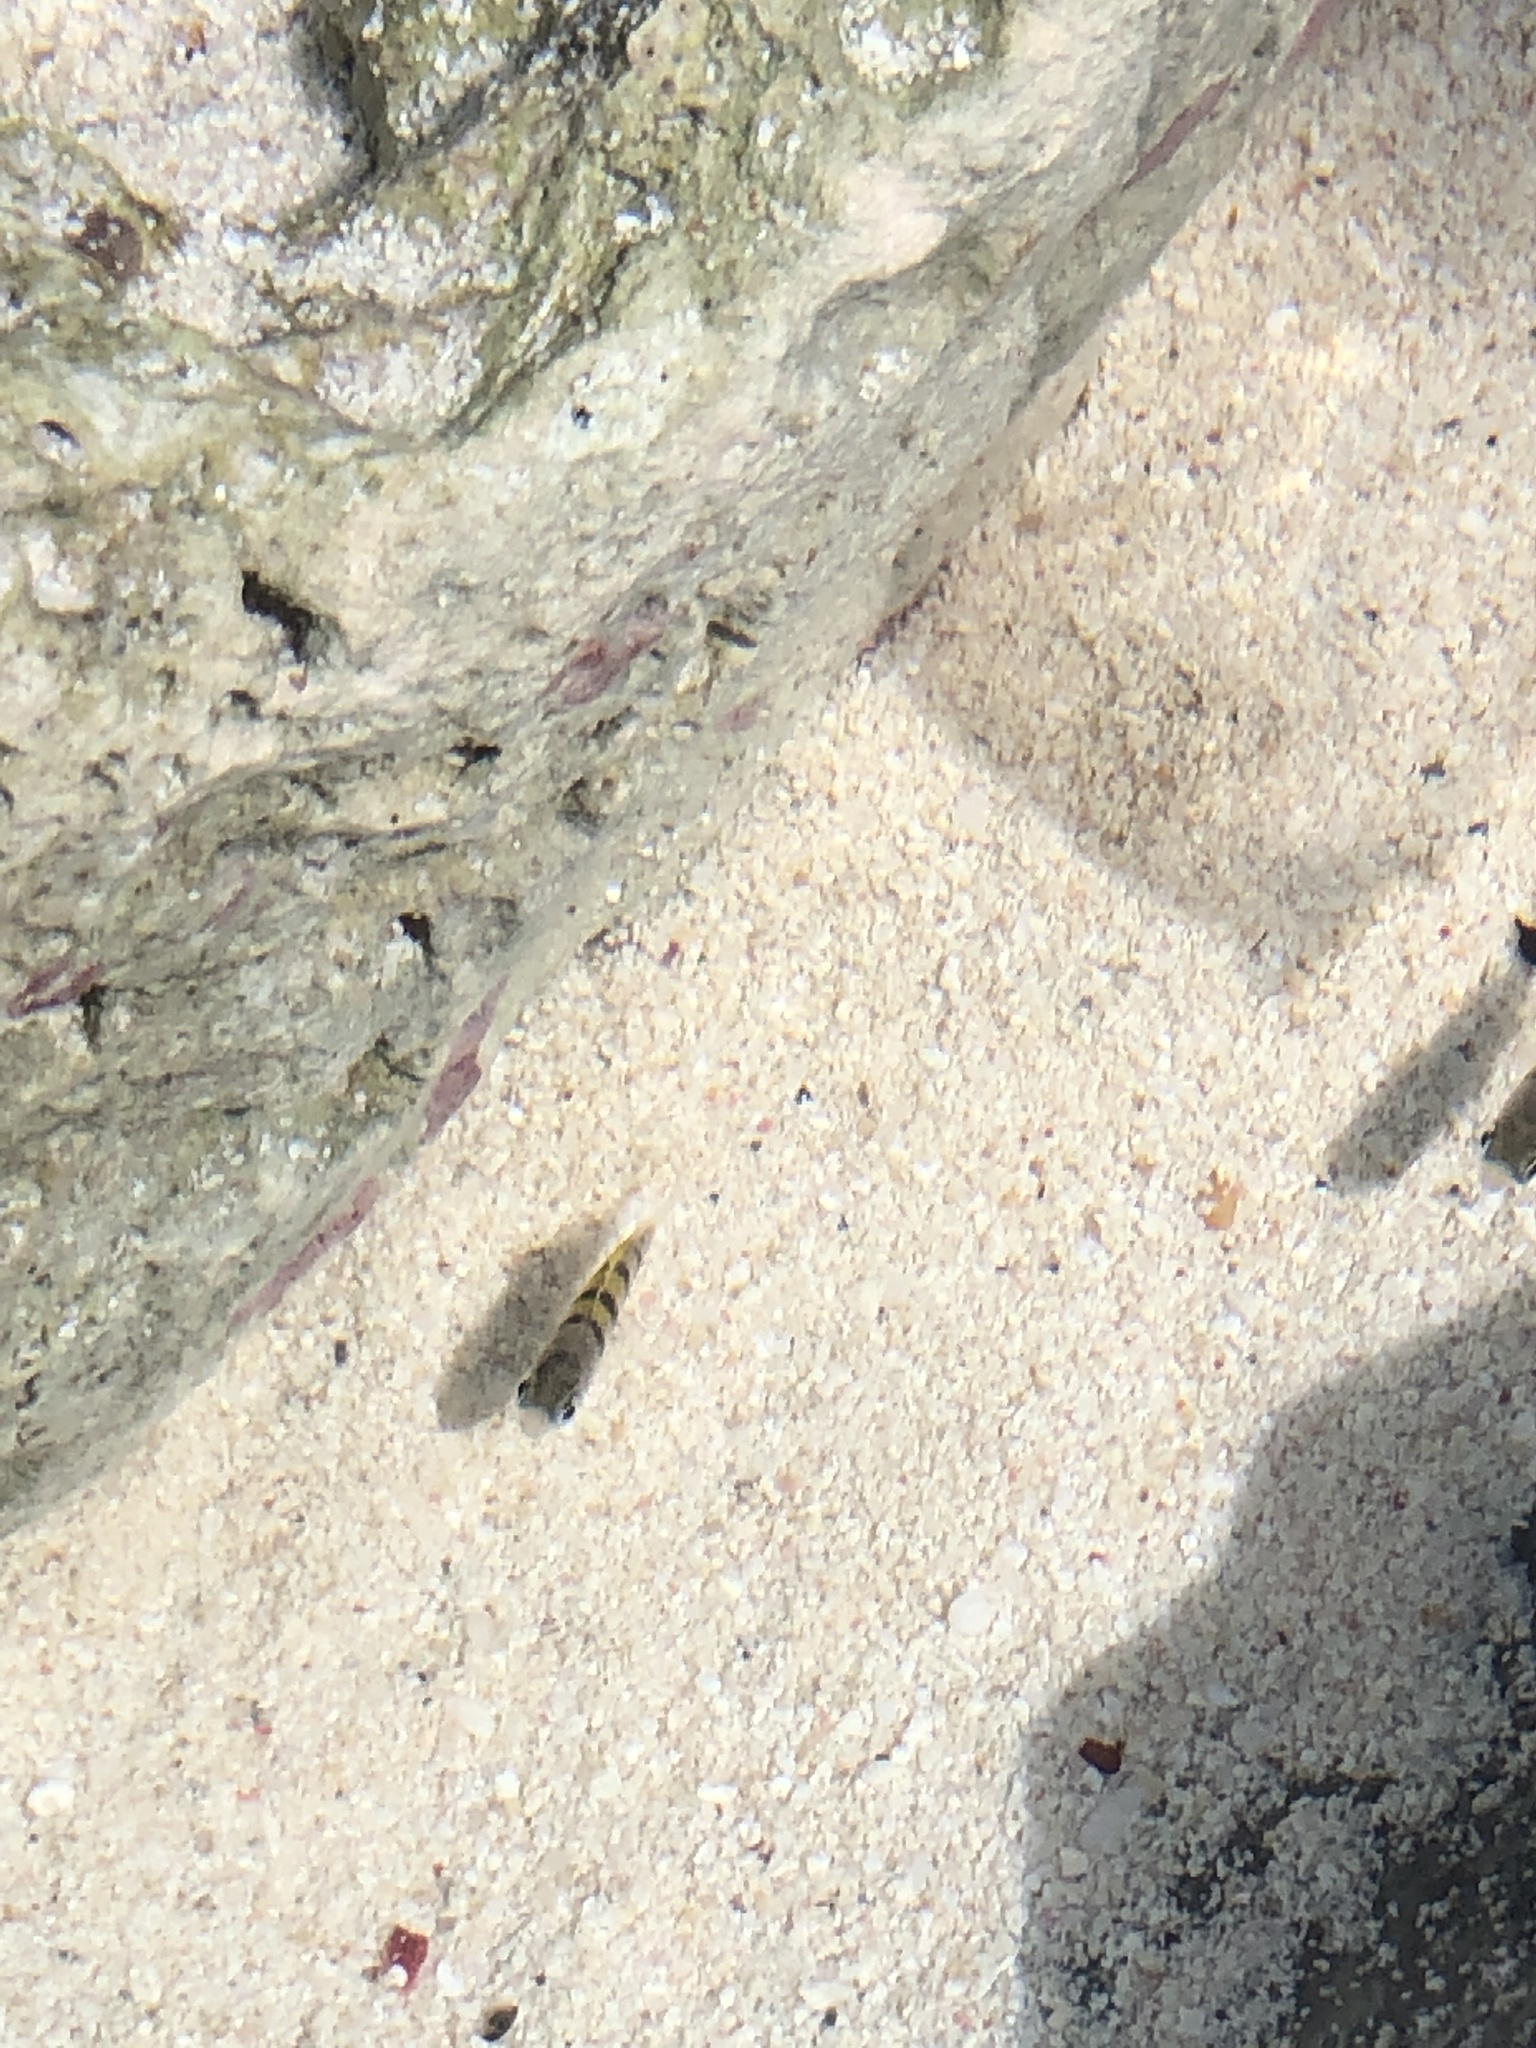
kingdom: Animalia
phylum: Chordata
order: Perciformes
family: Pomacentridae
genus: Abudefduf
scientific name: Abudefduf saxatilis
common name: Sergeant major
